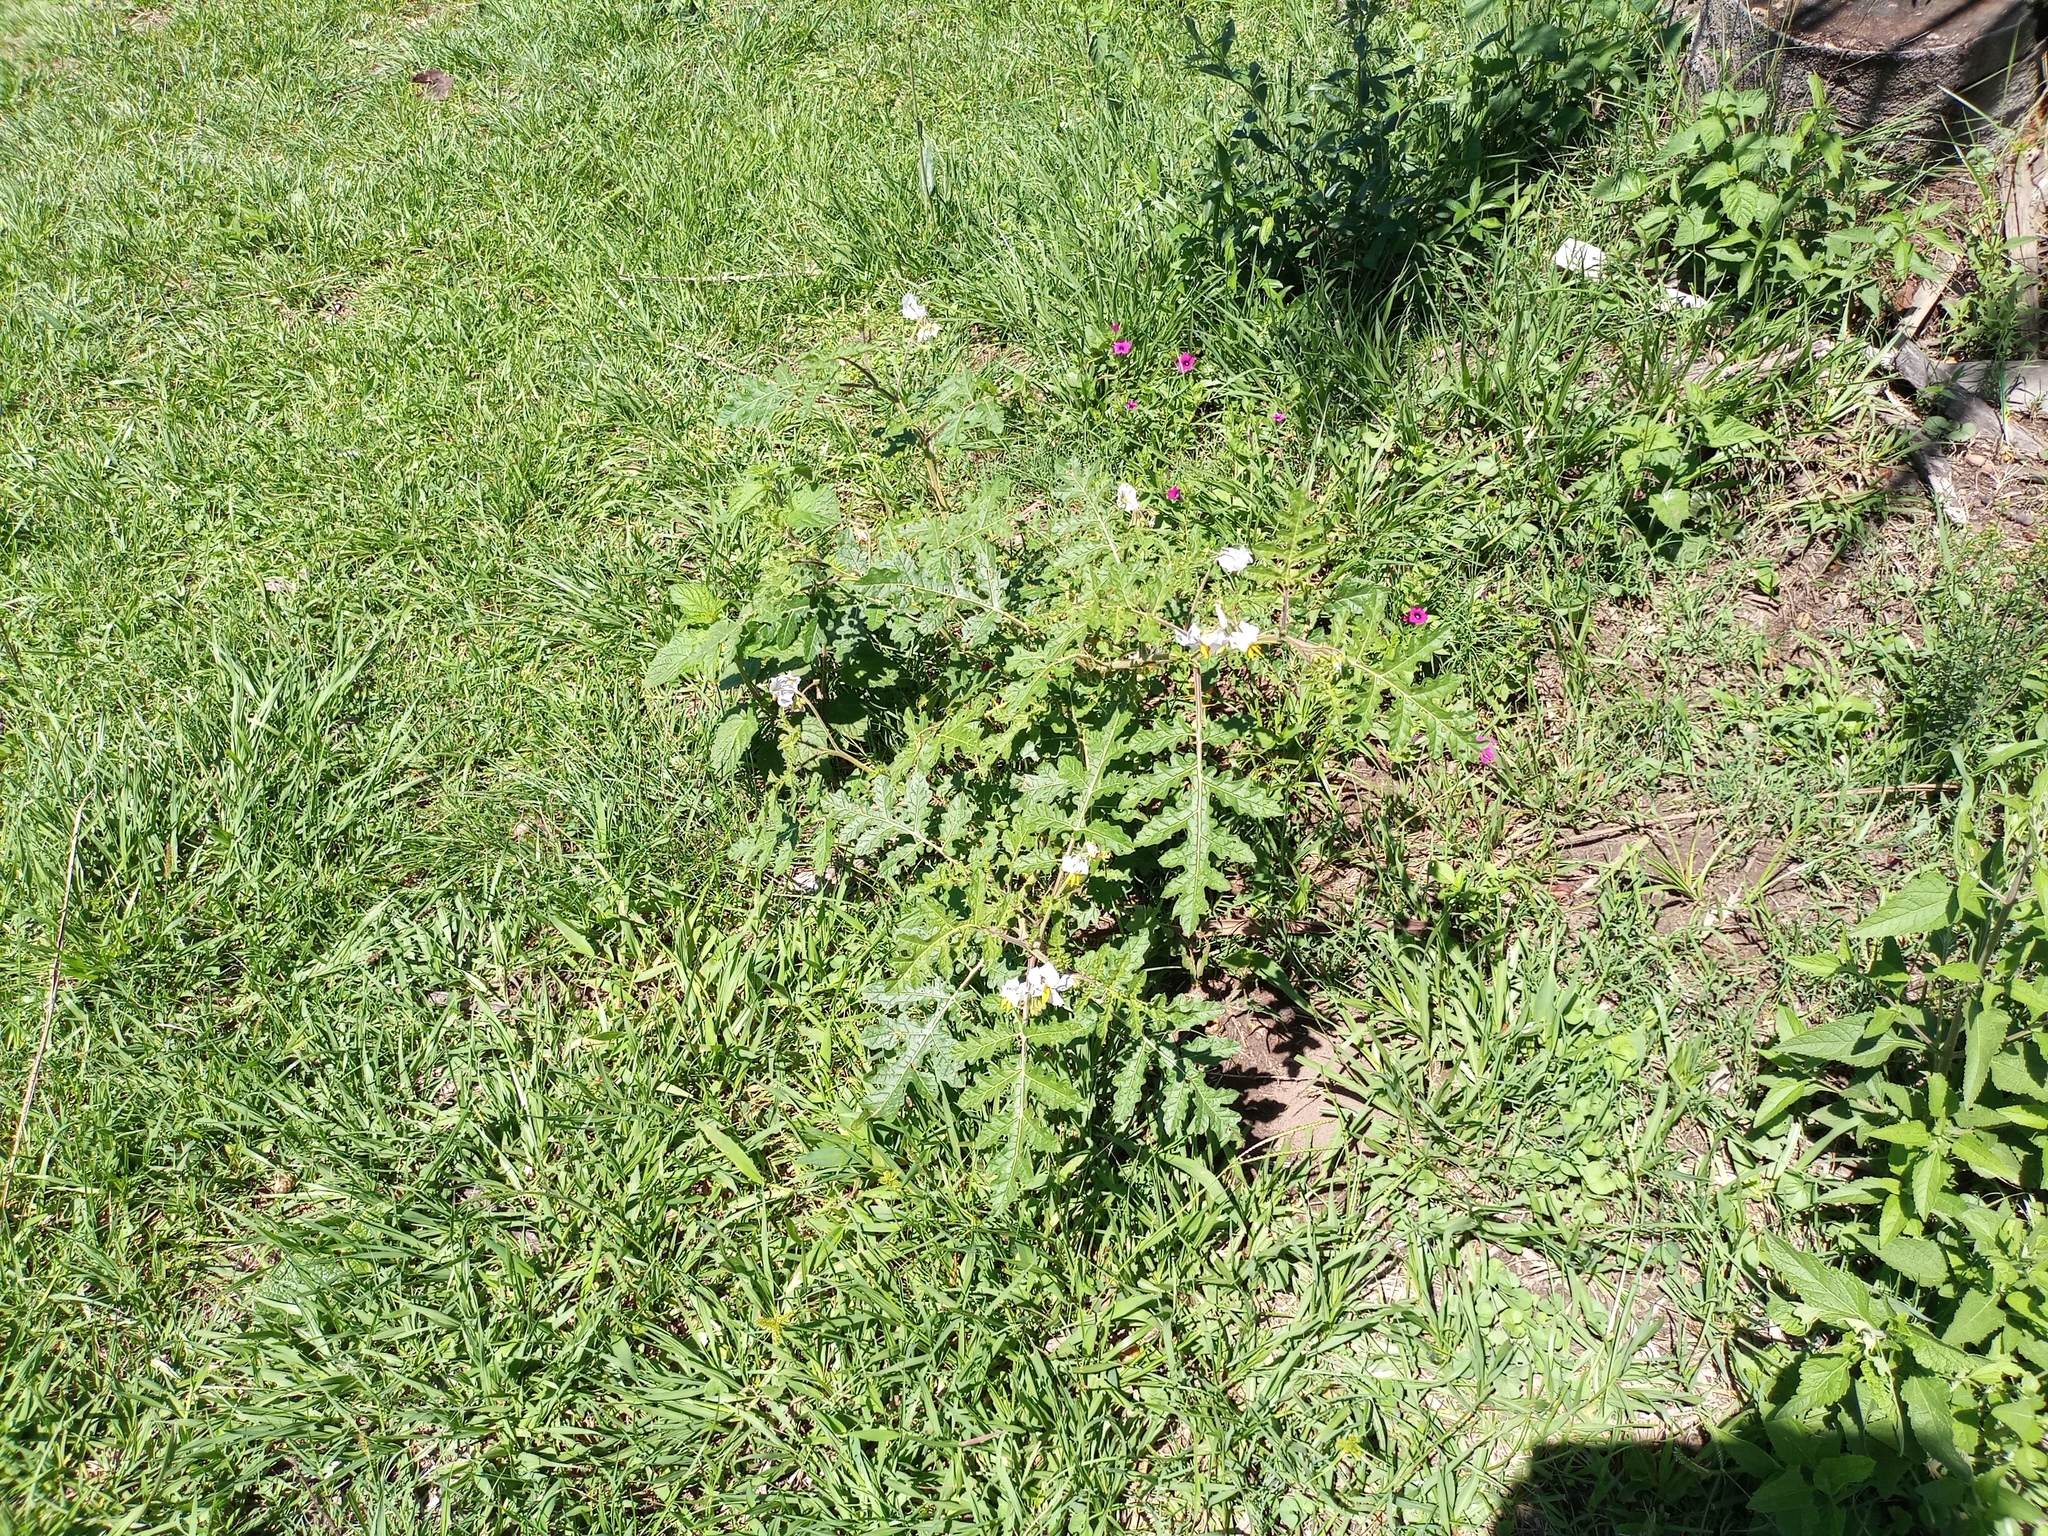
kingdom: Plantae
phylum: Tracheophyta
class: Magnoliopsida
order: Solanales
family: Solanaceae
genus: Solanum
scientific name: Solanum sisymbriifolium
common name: Red buffalo-bur
